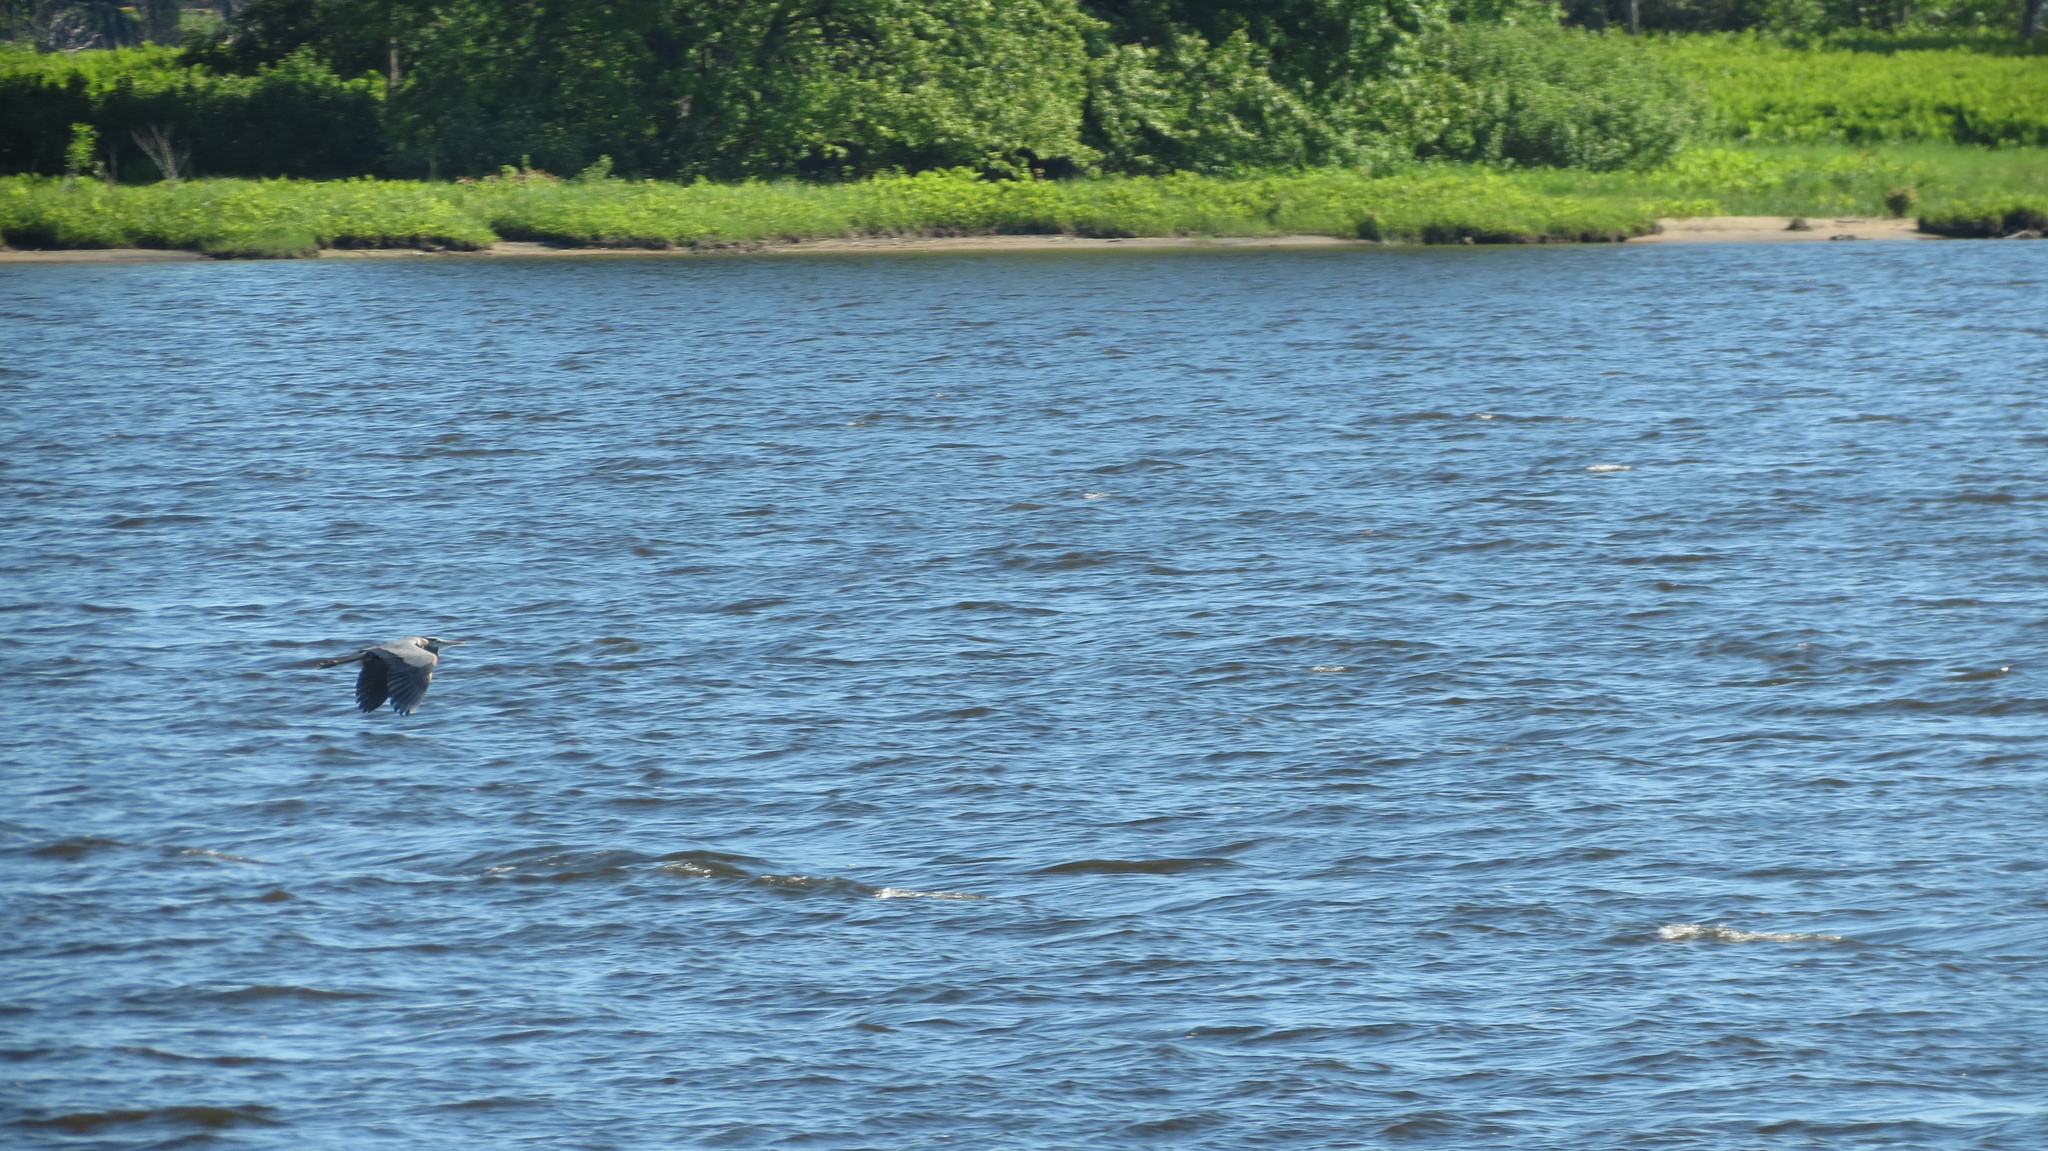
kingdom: Animalia
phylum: Chordata
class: Aves
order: Pelecaniformes
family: Ardeidae
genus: Ardea
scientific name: Ardea herodias
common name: Great blue heron
